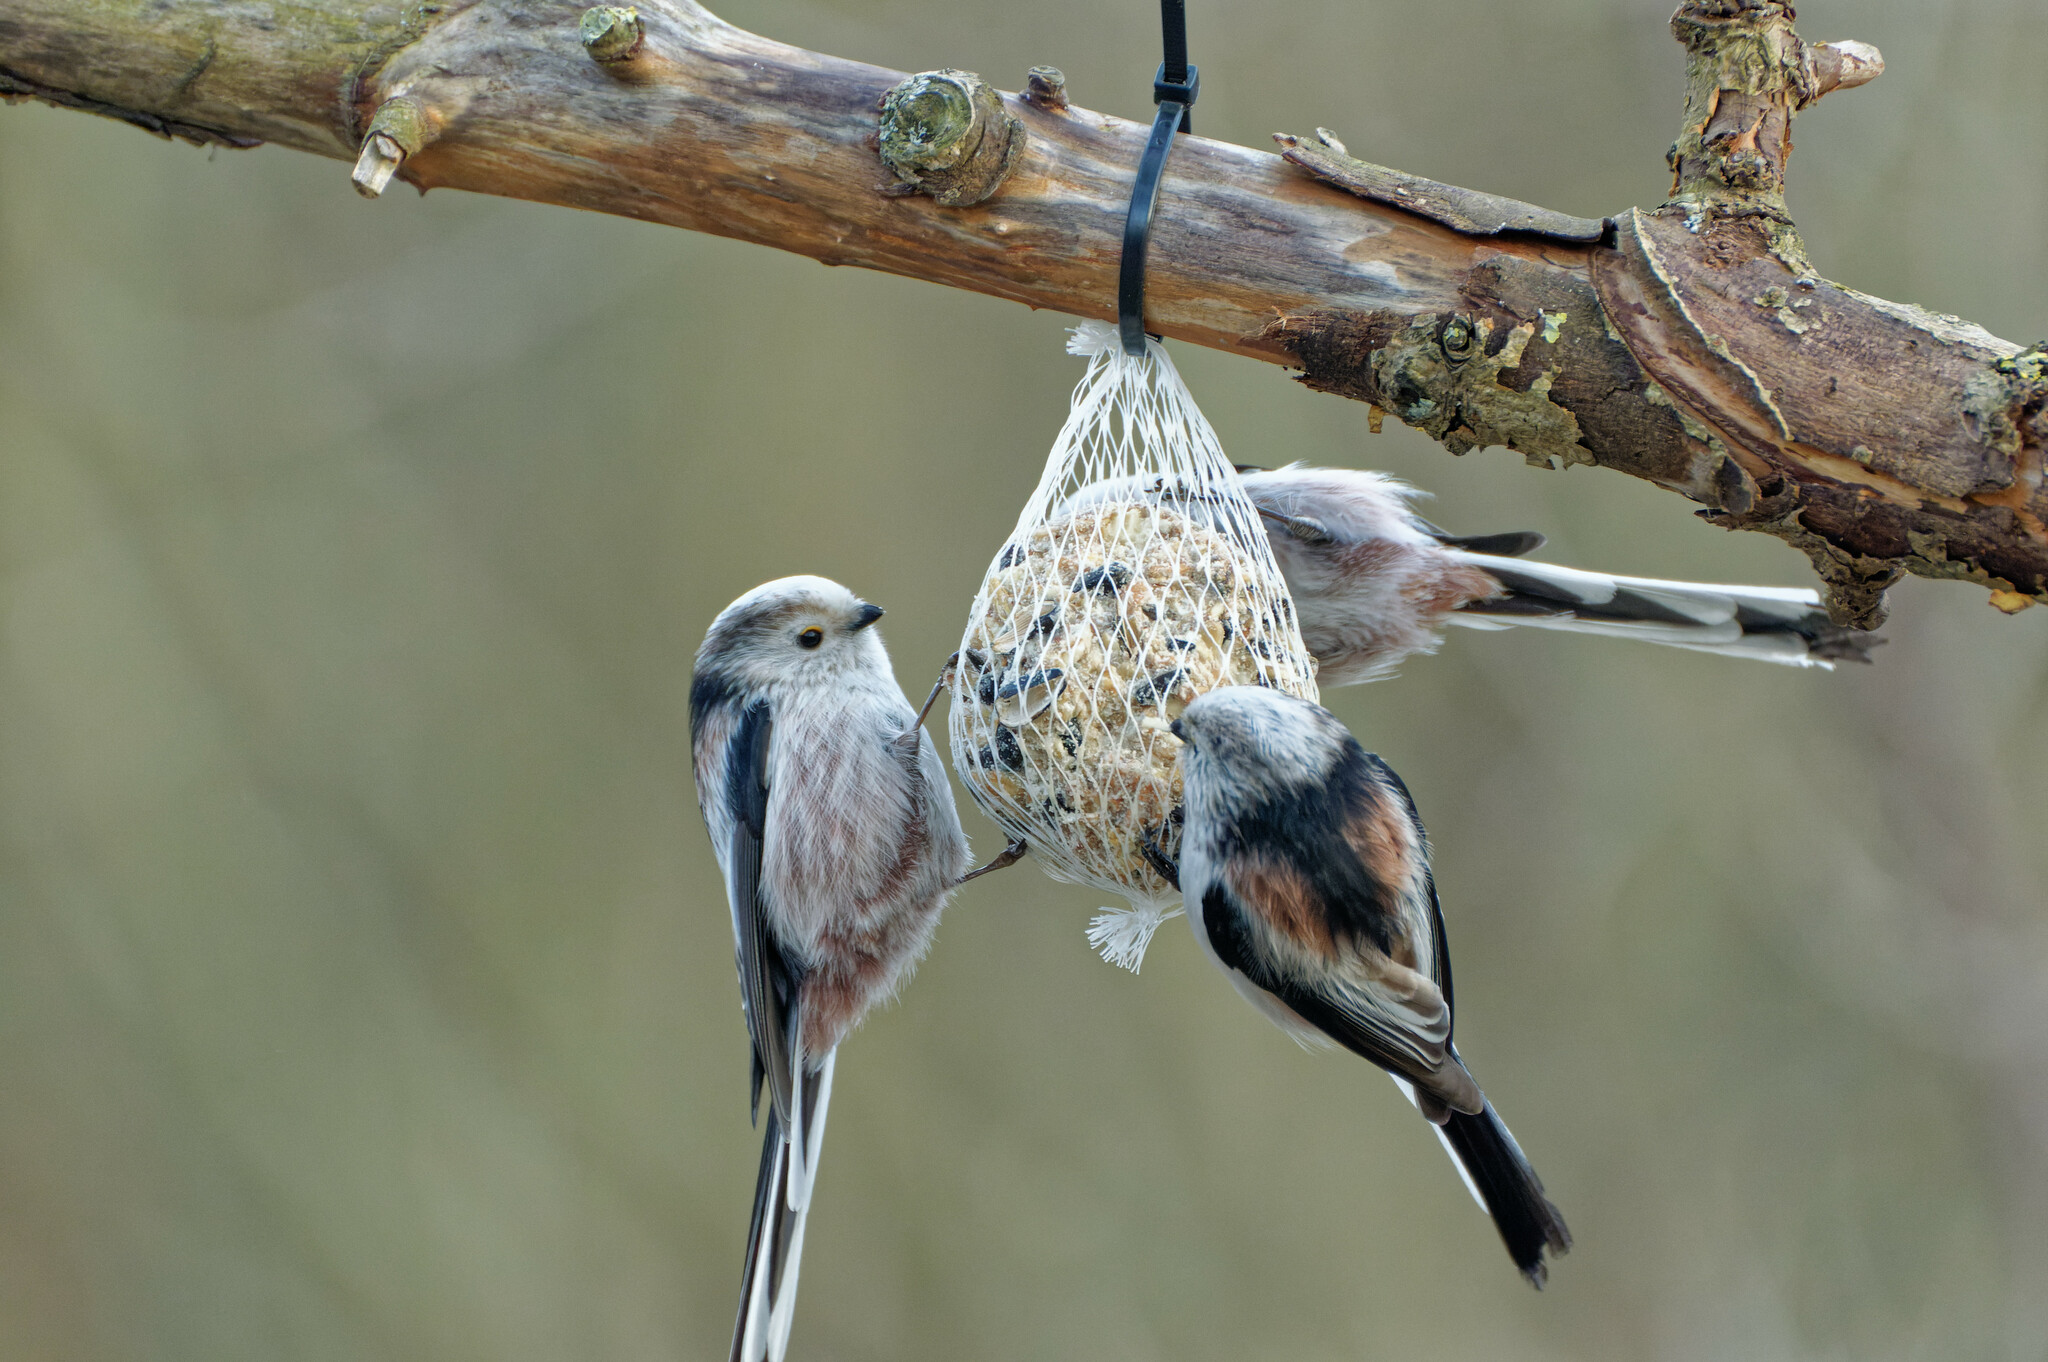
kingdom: Animalia
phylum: Chordata
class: Aves
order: Passeriformes
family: Aegithalidae
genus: Aegithalos
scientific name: Aegithalos caudatus
